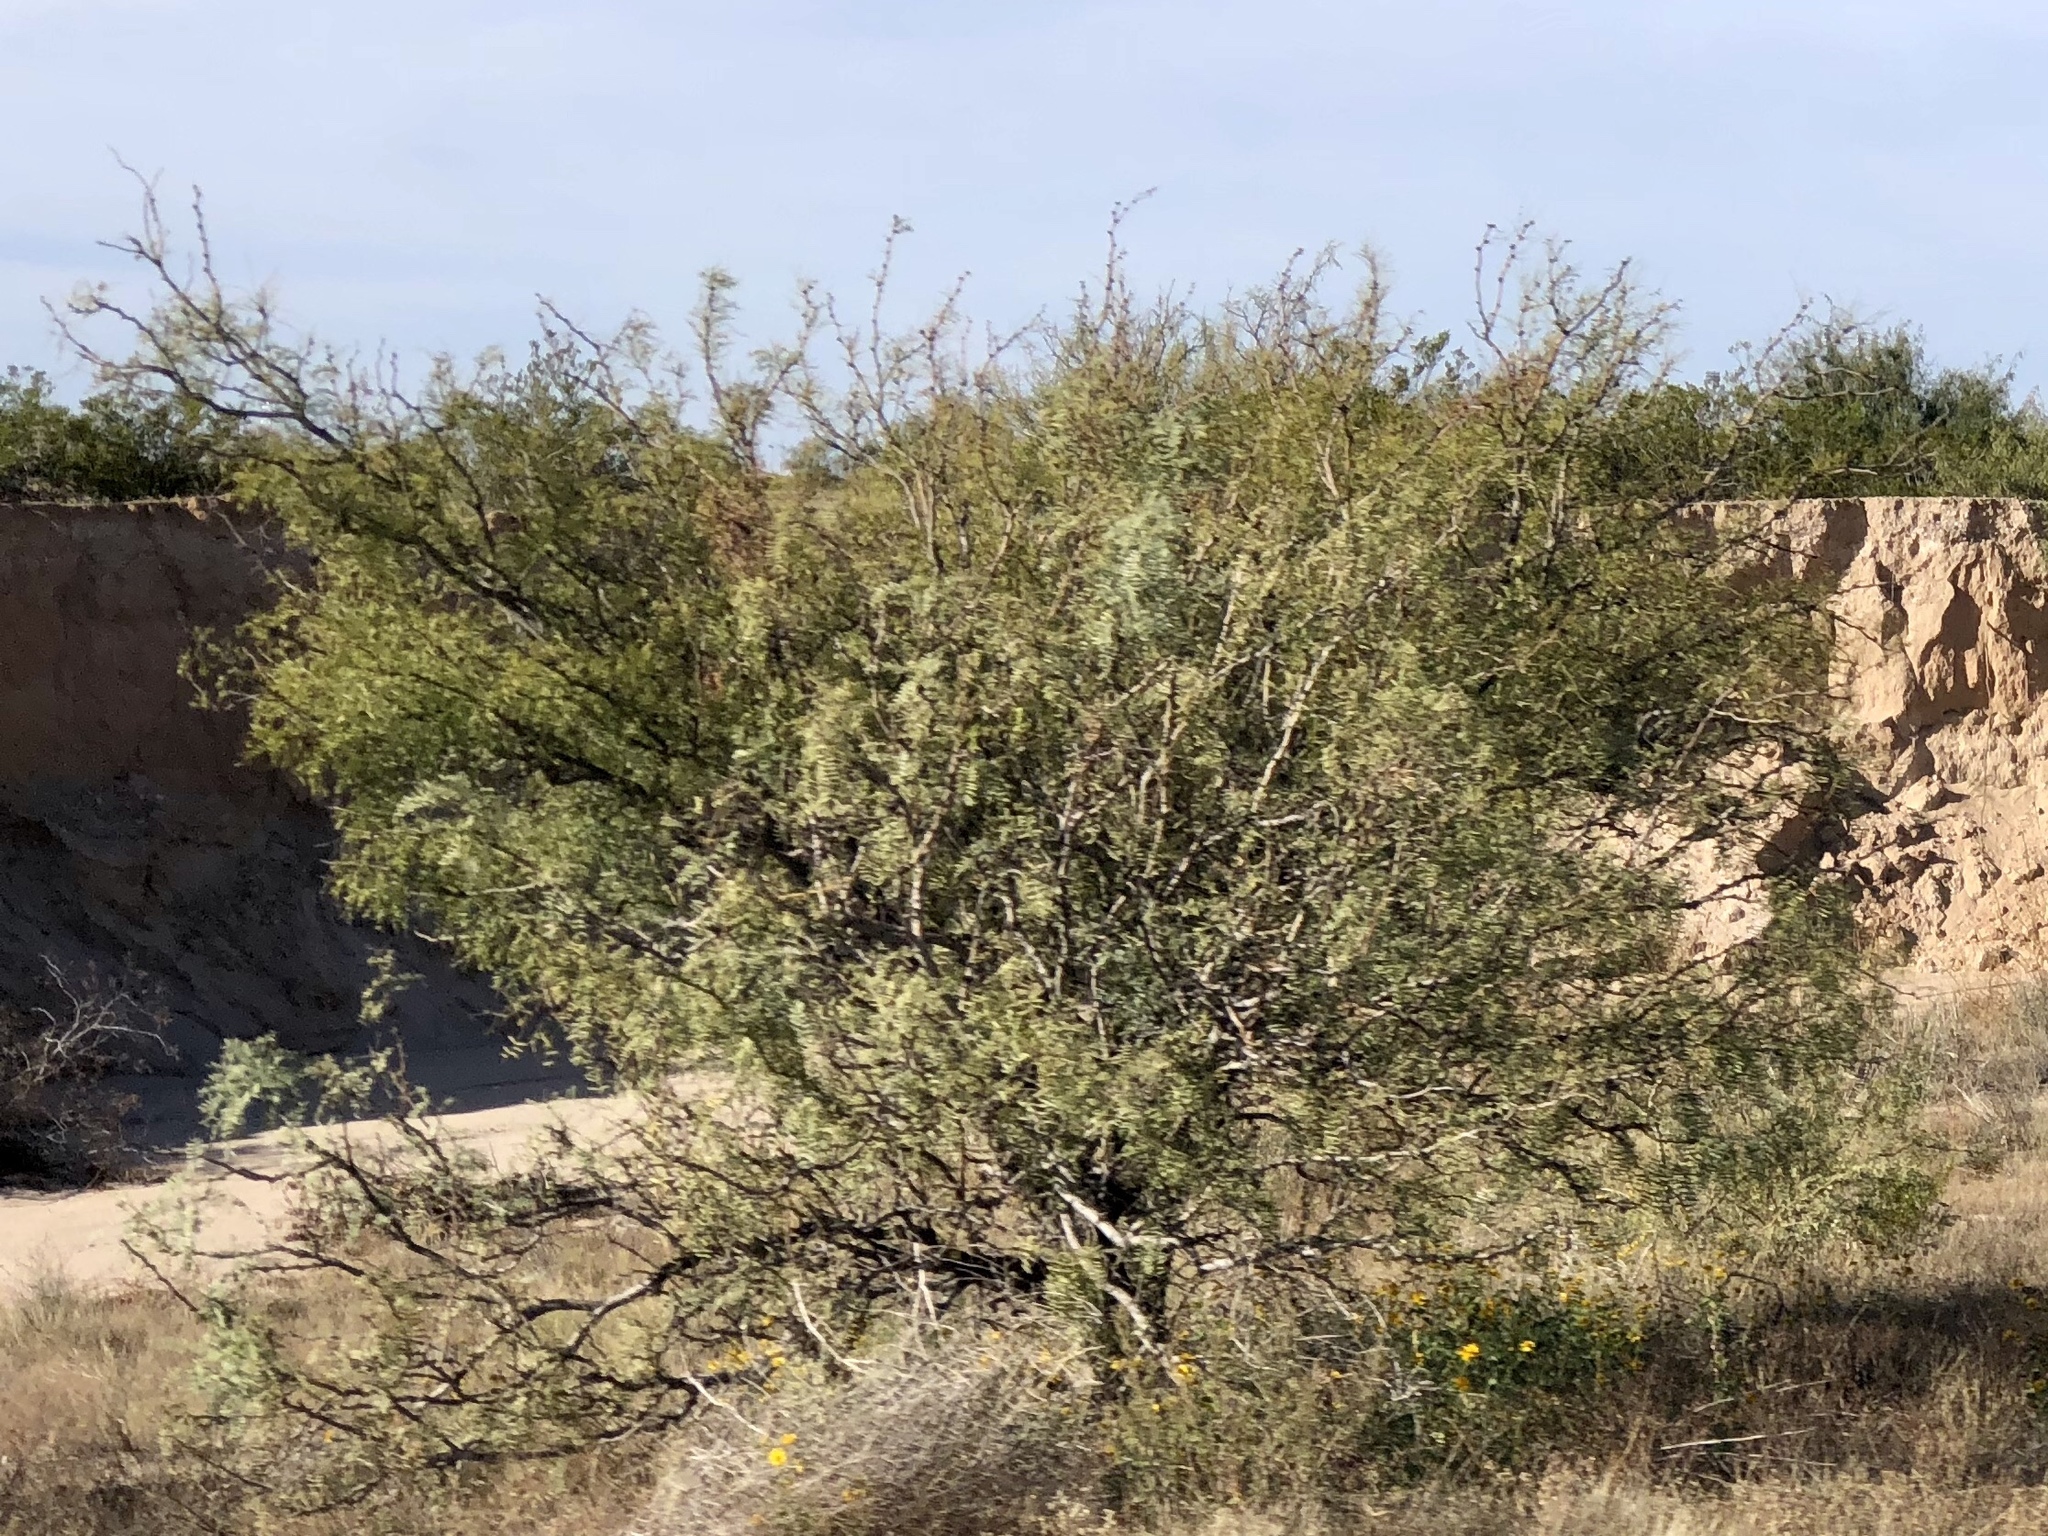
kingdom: Plantae
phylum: Tracheophyta
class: Magnoliopsida
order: Fabales
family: Fabaceae
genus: Prosopis
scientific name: Prosopis glandulosa
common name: Honey mesquite
